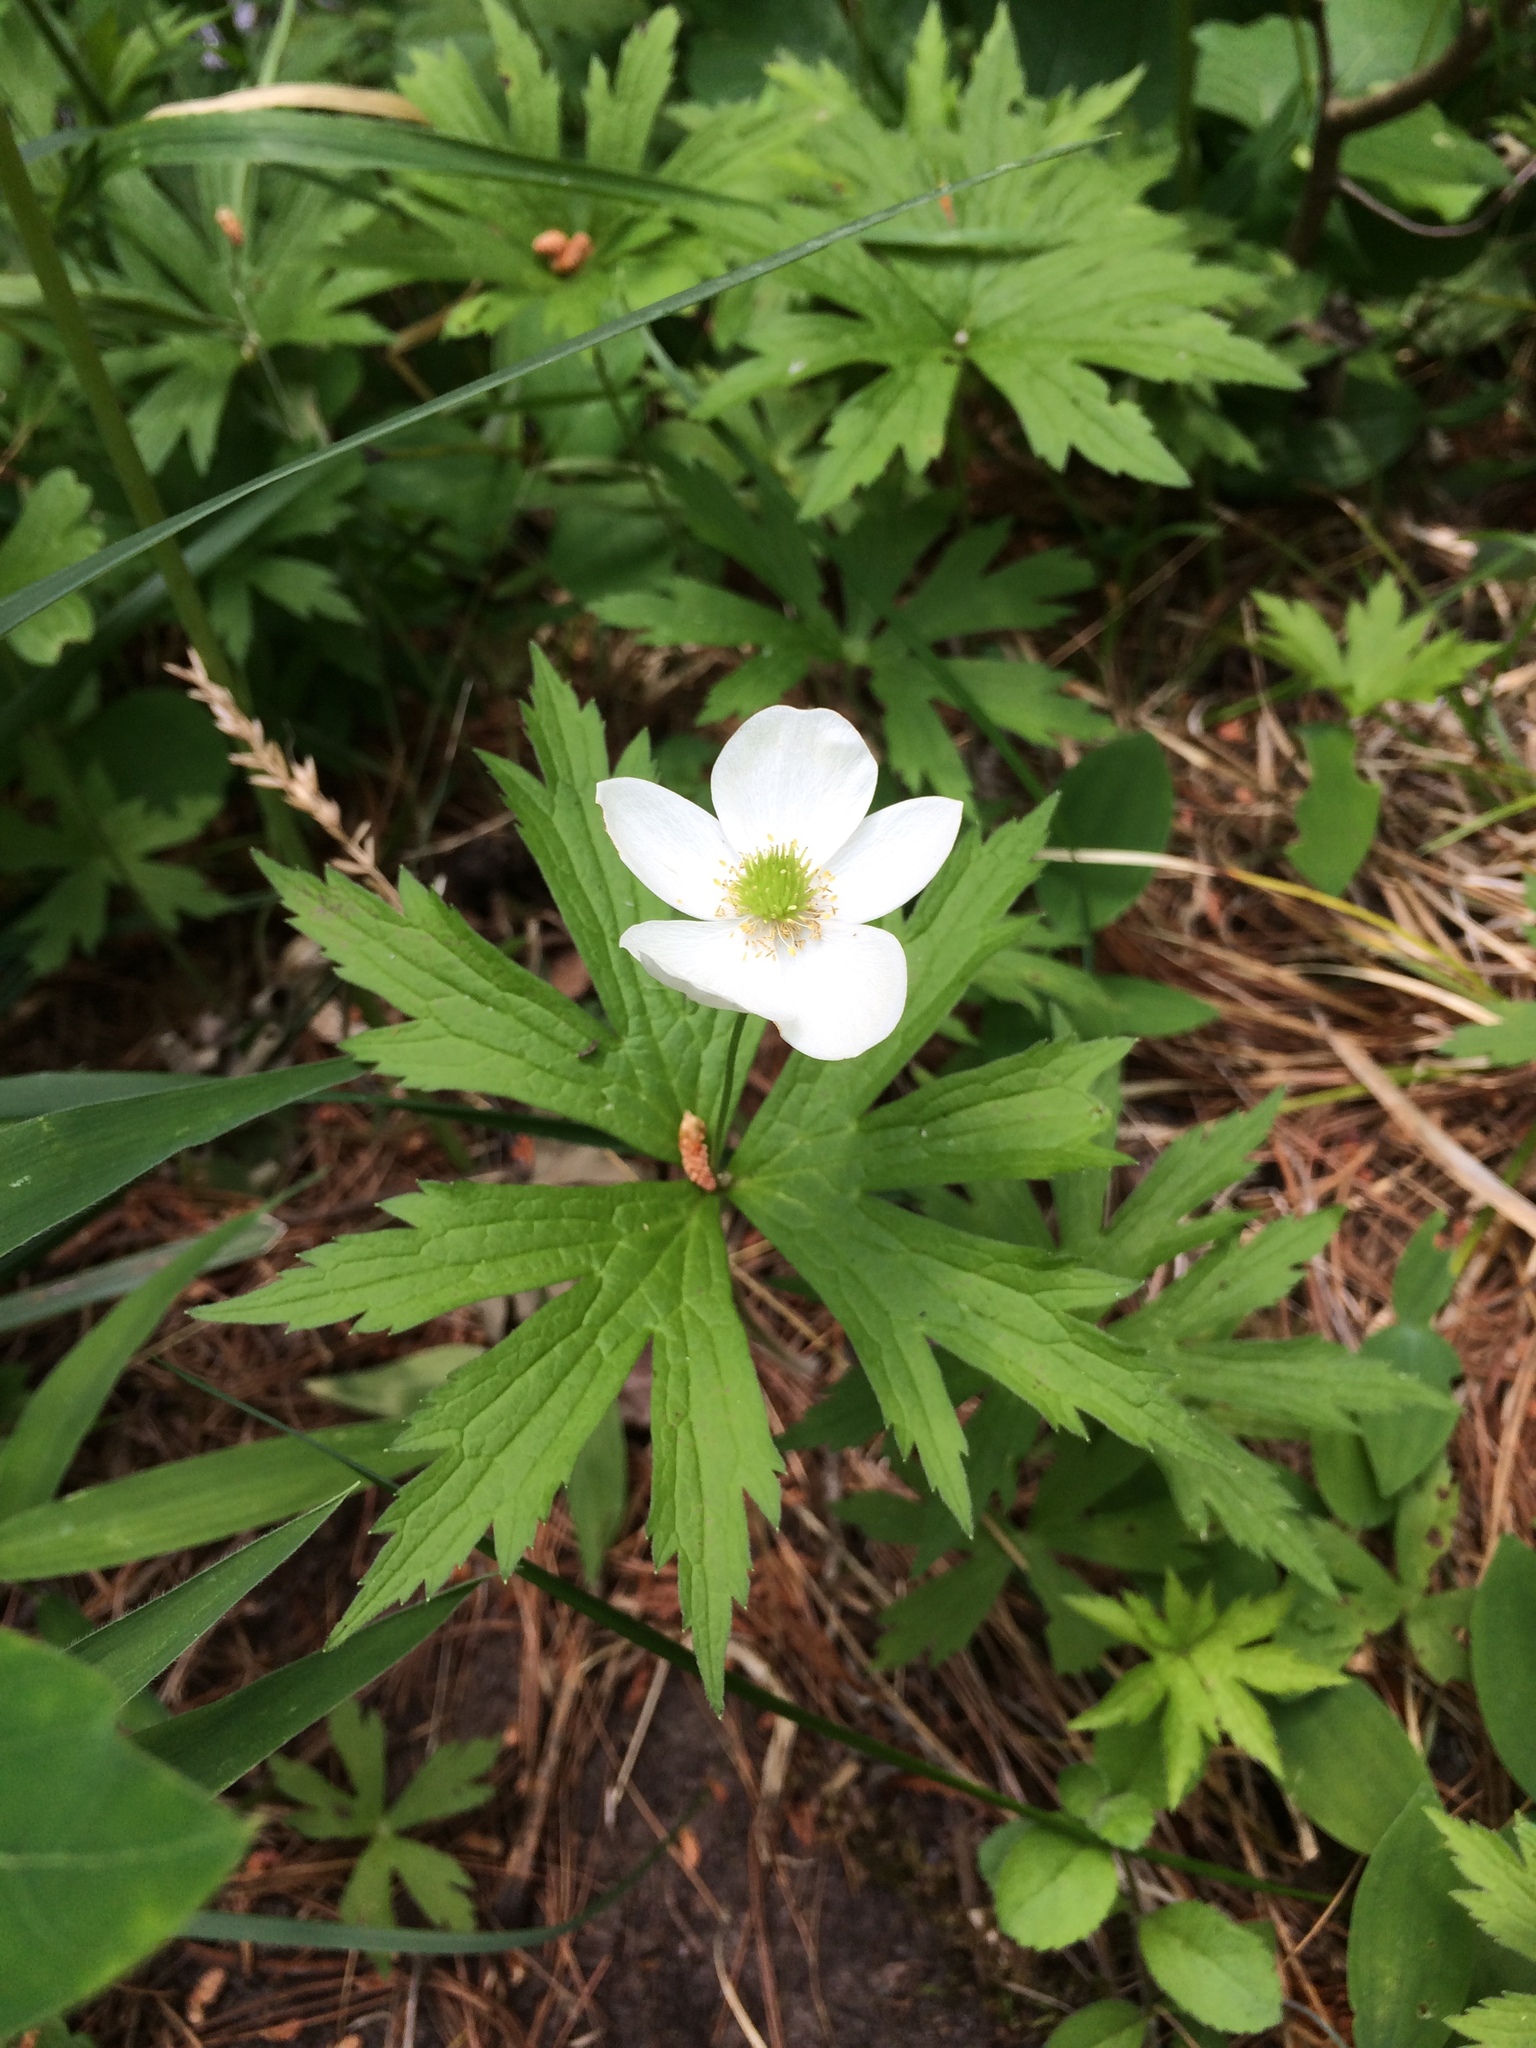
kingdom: Plantae
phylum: Tracheophyta
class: Magnoliopsida
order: Ranunculales
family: Ranunculaceae
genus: Anemonastrum
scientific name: Anemonastrum canadense
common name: Canada anemone
